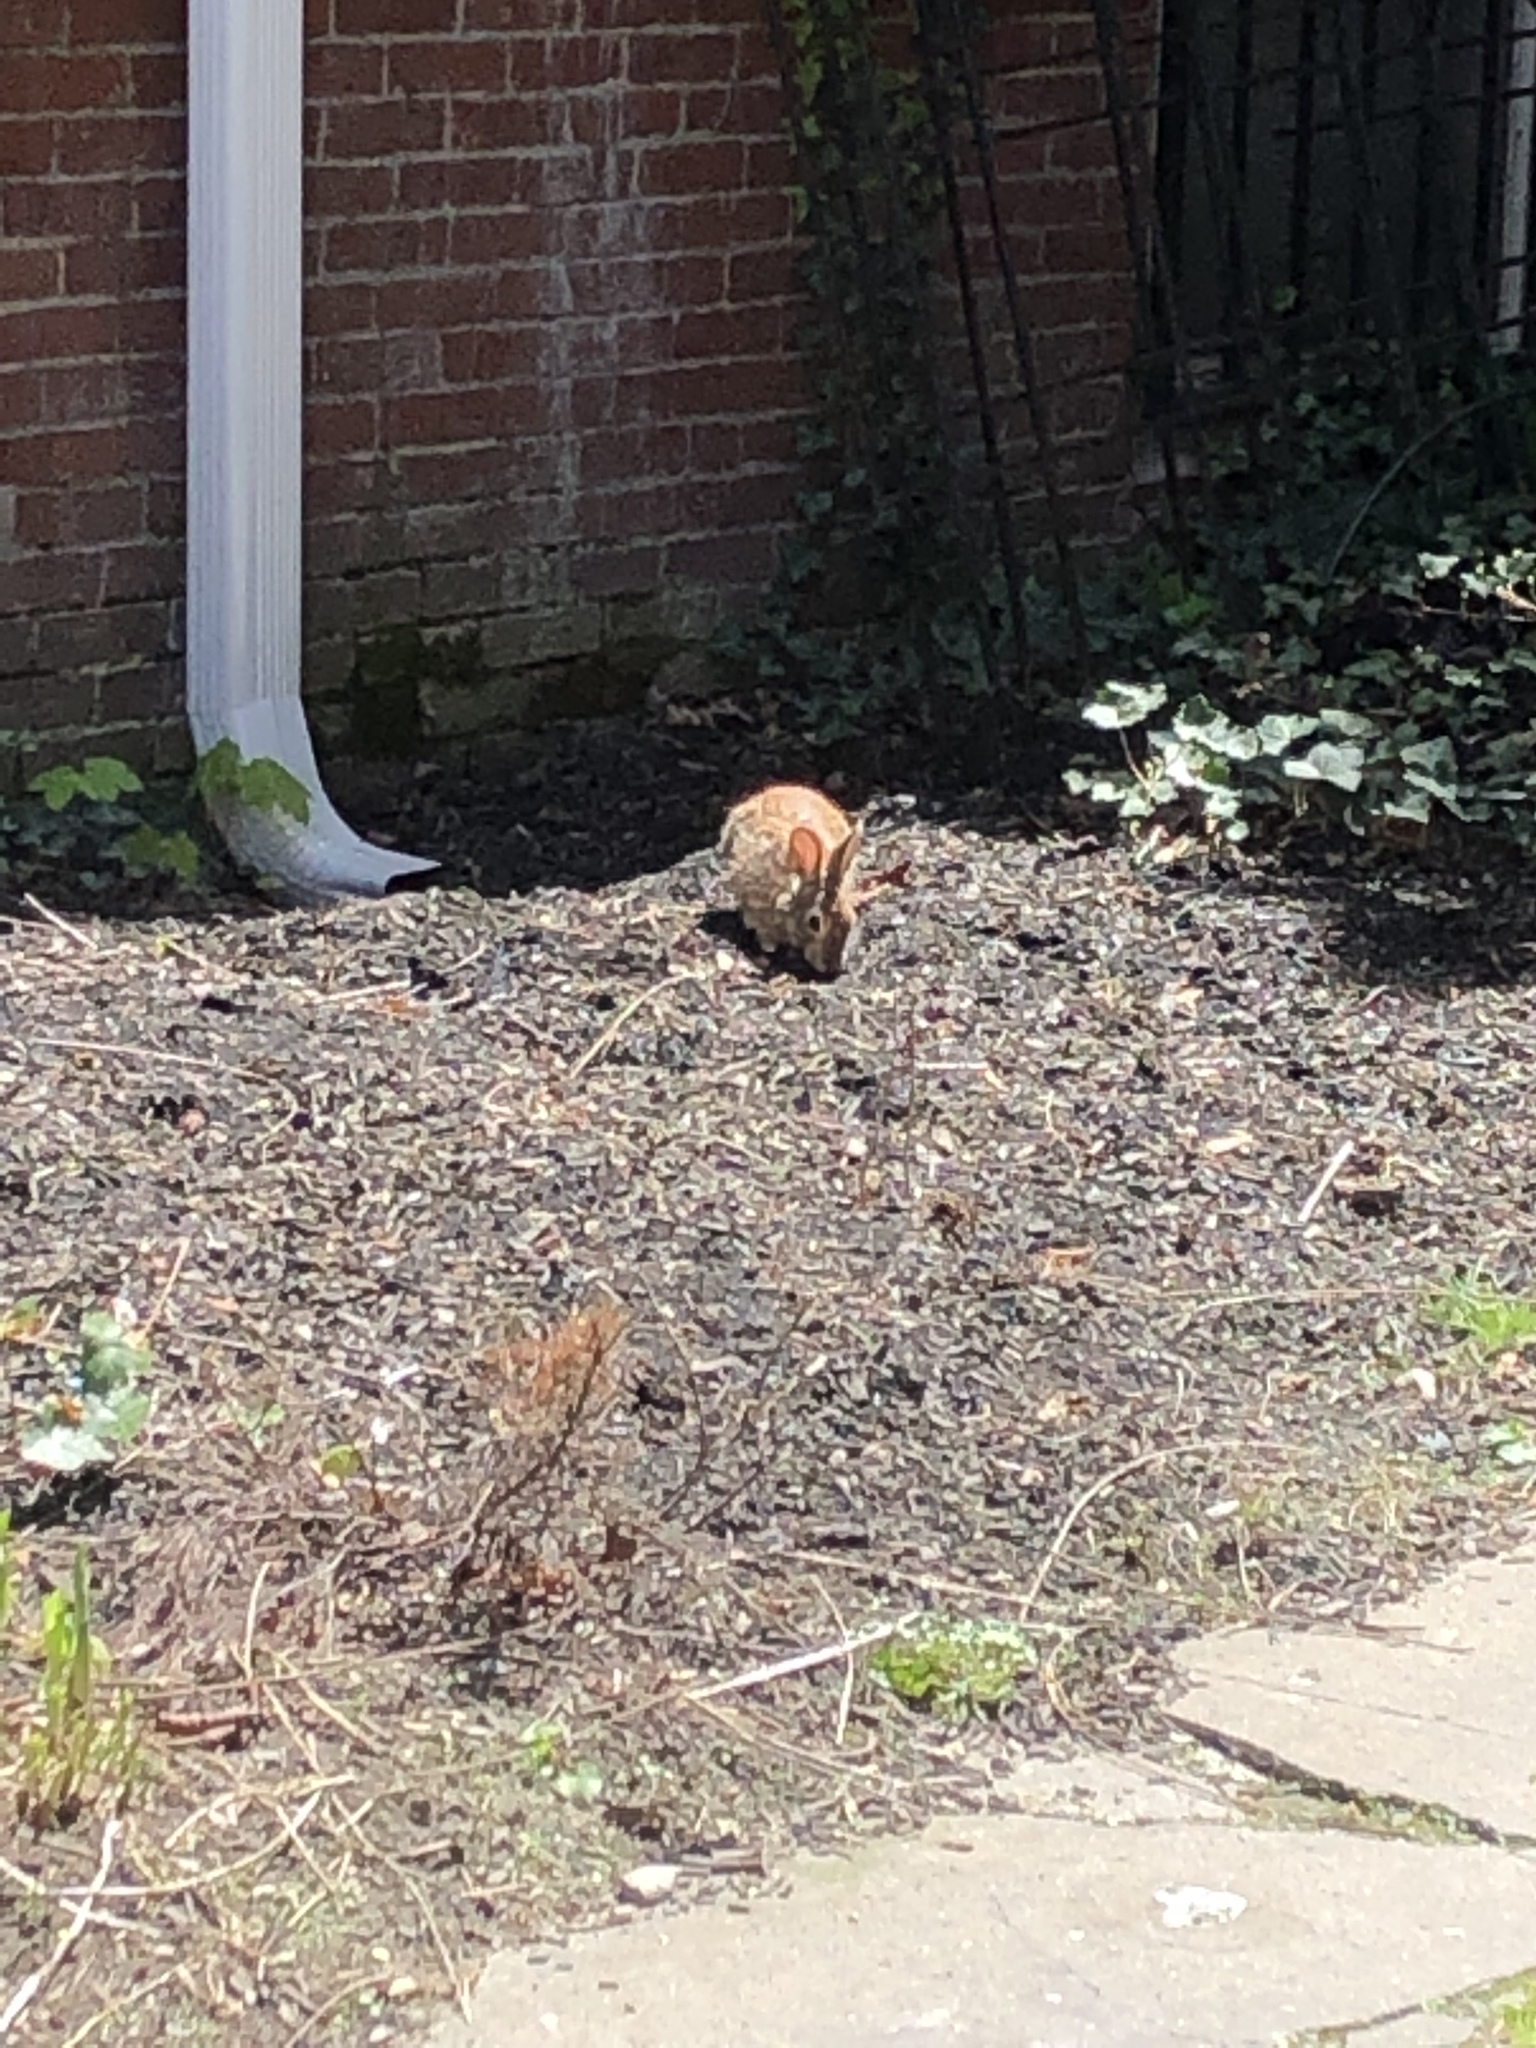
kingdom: Animalia
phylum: Chordata
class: Mammalia
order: Lagomorpha
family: Leporidae
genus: Sylvilagus
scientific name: Sylvilagus floridanus
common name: Eastern cottontail
